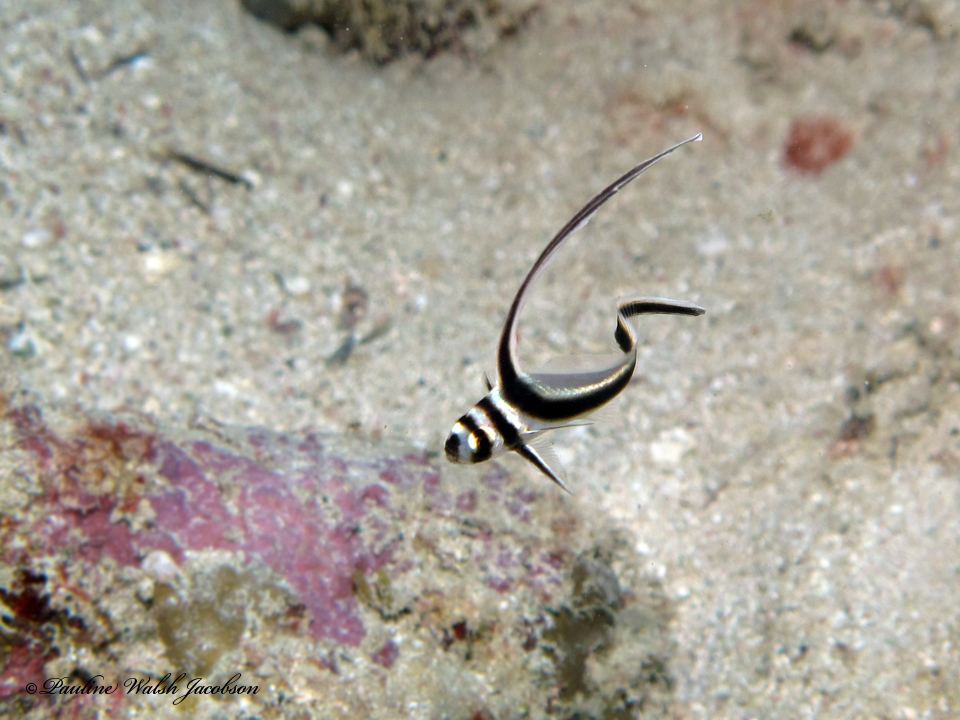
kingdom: Animalia
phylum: Chordata
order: Perciformes
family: Sciaenidae
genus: Equetus
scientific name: Equetus punctatus
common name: Spotted drum
